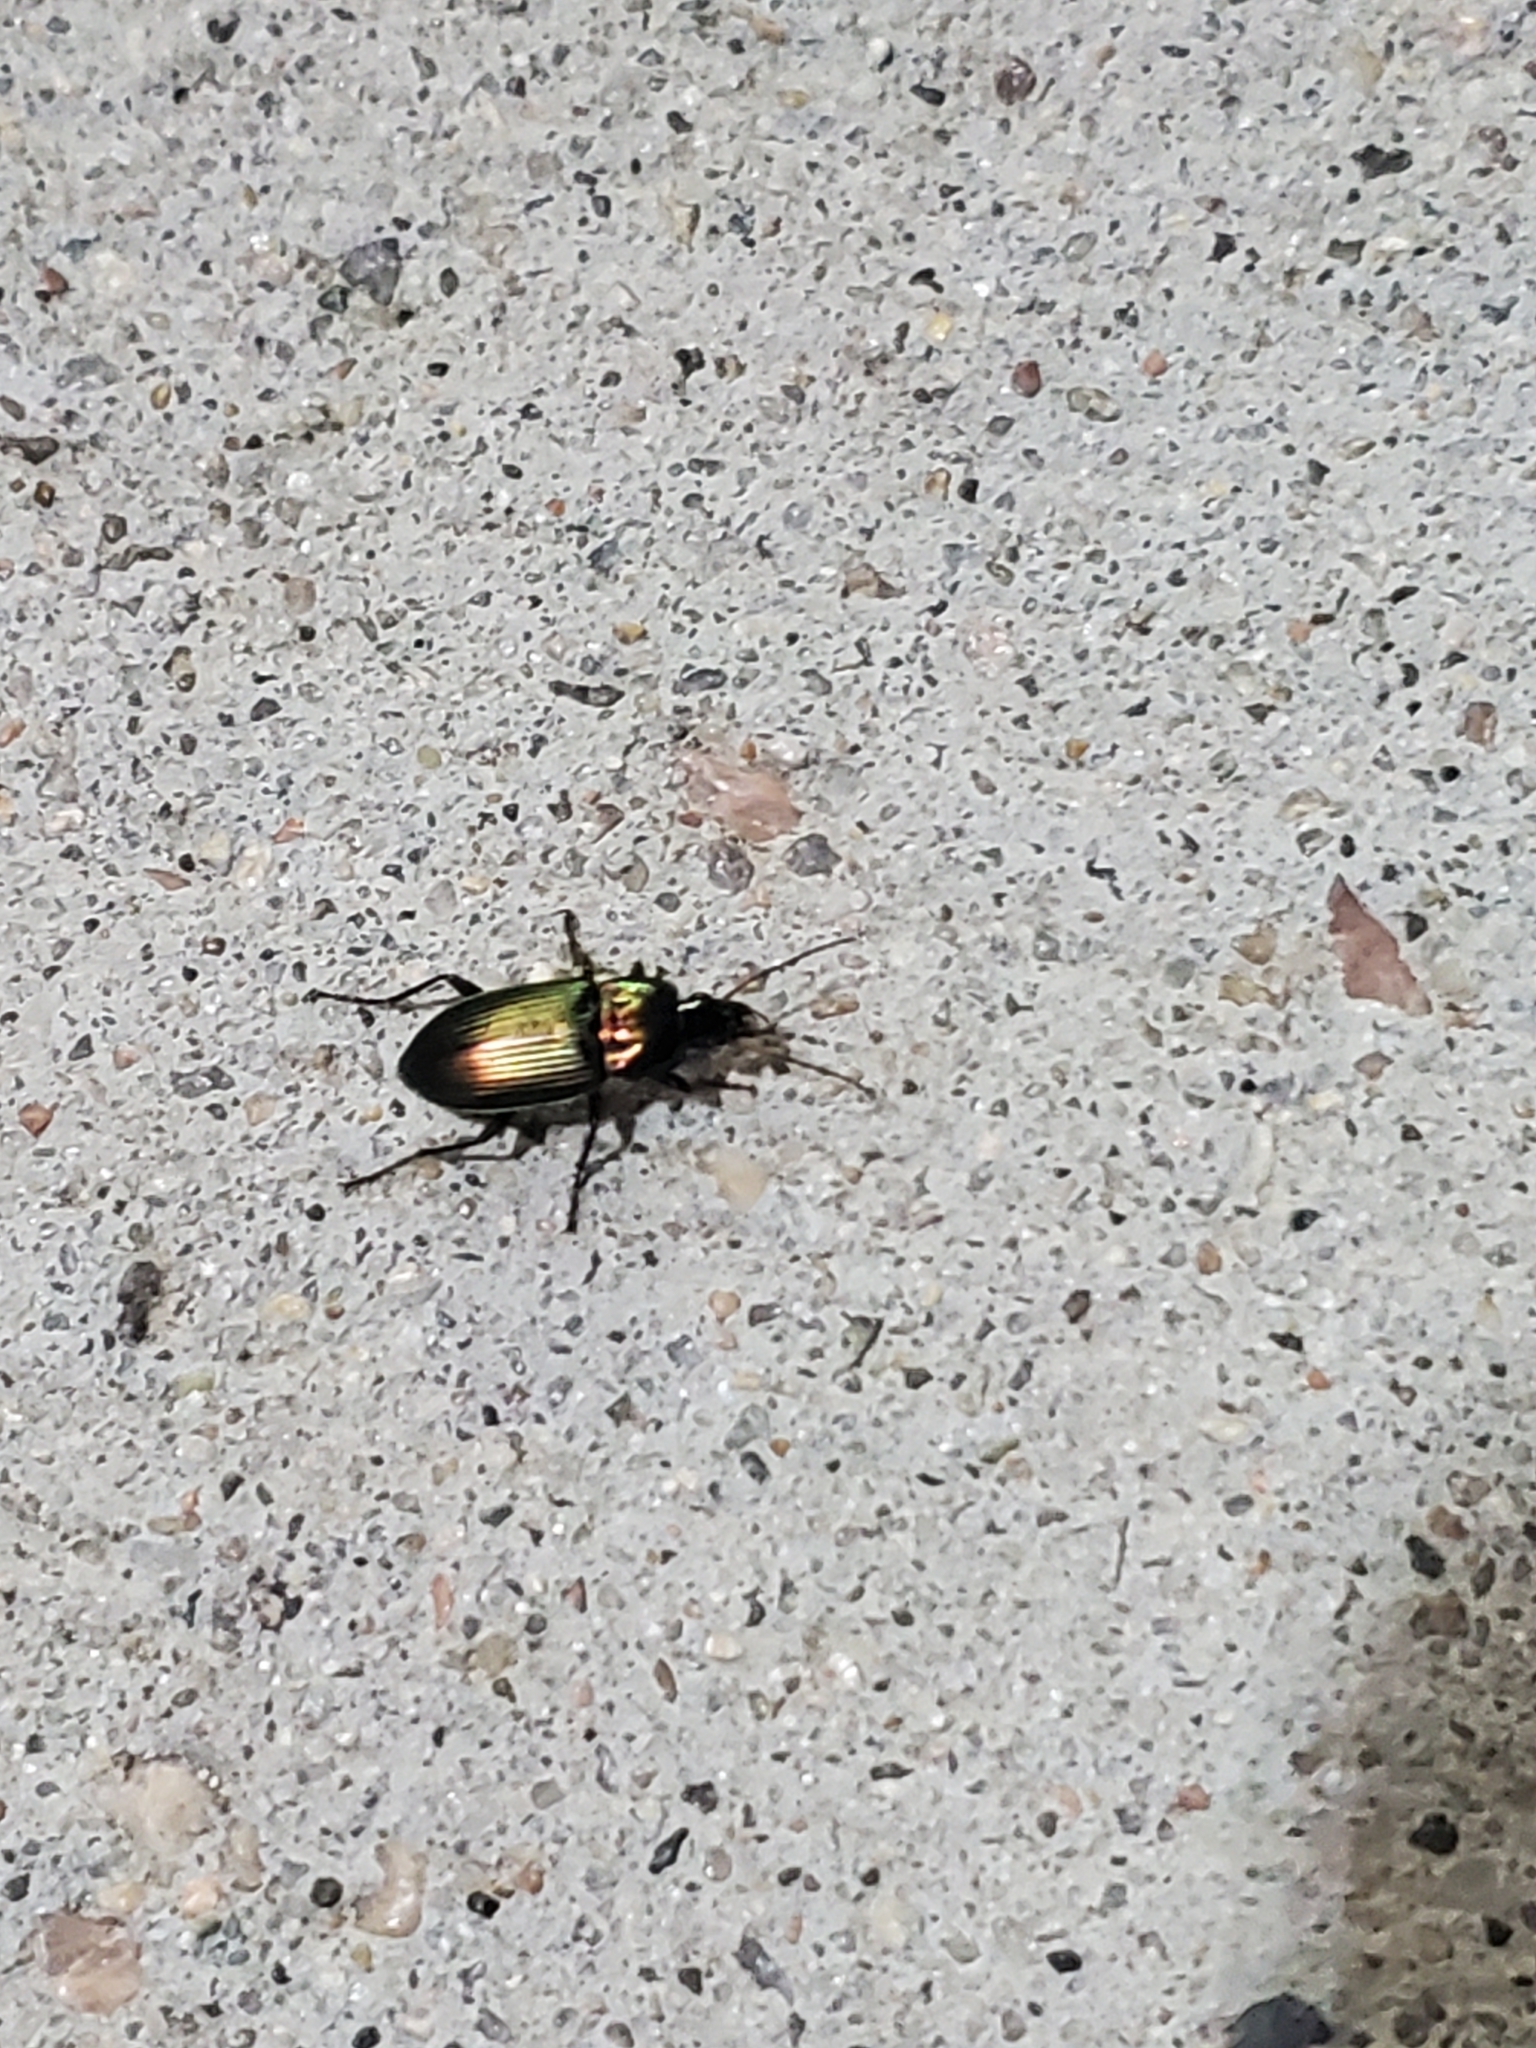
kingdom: Animalia
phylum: Arthropoda
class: Insecta
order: Coleoptera
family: Carabidae
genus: Poecilus
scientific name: Poecilus chalcites
